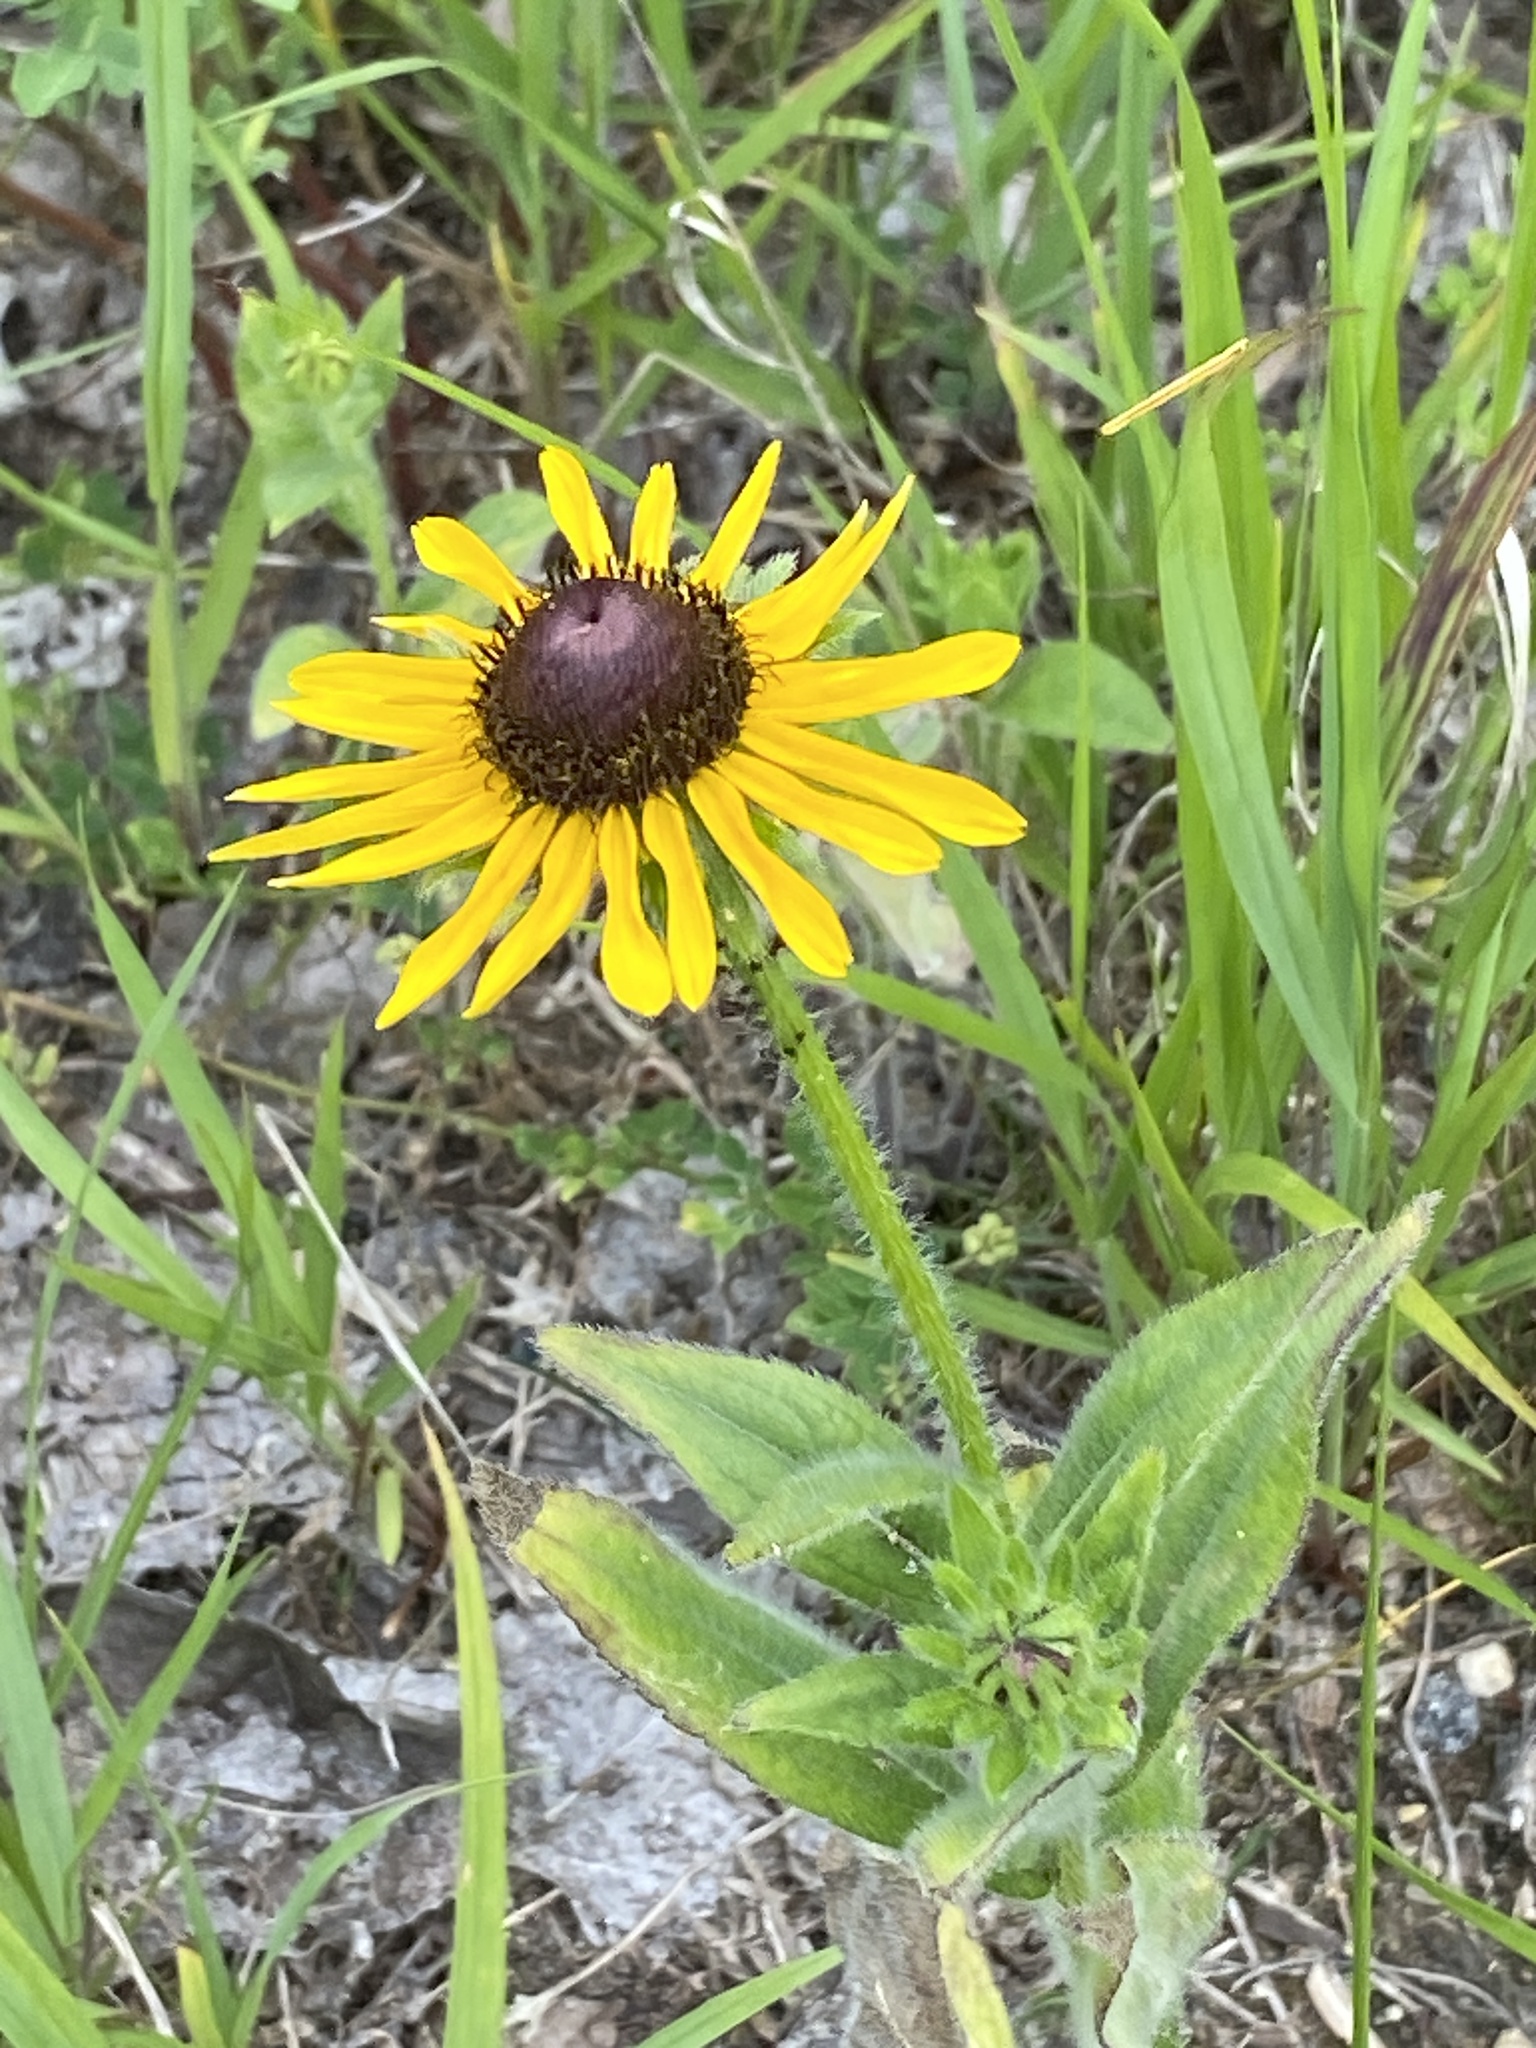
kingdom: Plantae
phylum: Tracheophyta
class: Magnoliopsida
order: Asterales
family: Asteraceae
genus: Rudbeckia
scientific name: Rudbeckia hirta
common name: Black-eyed-susan
